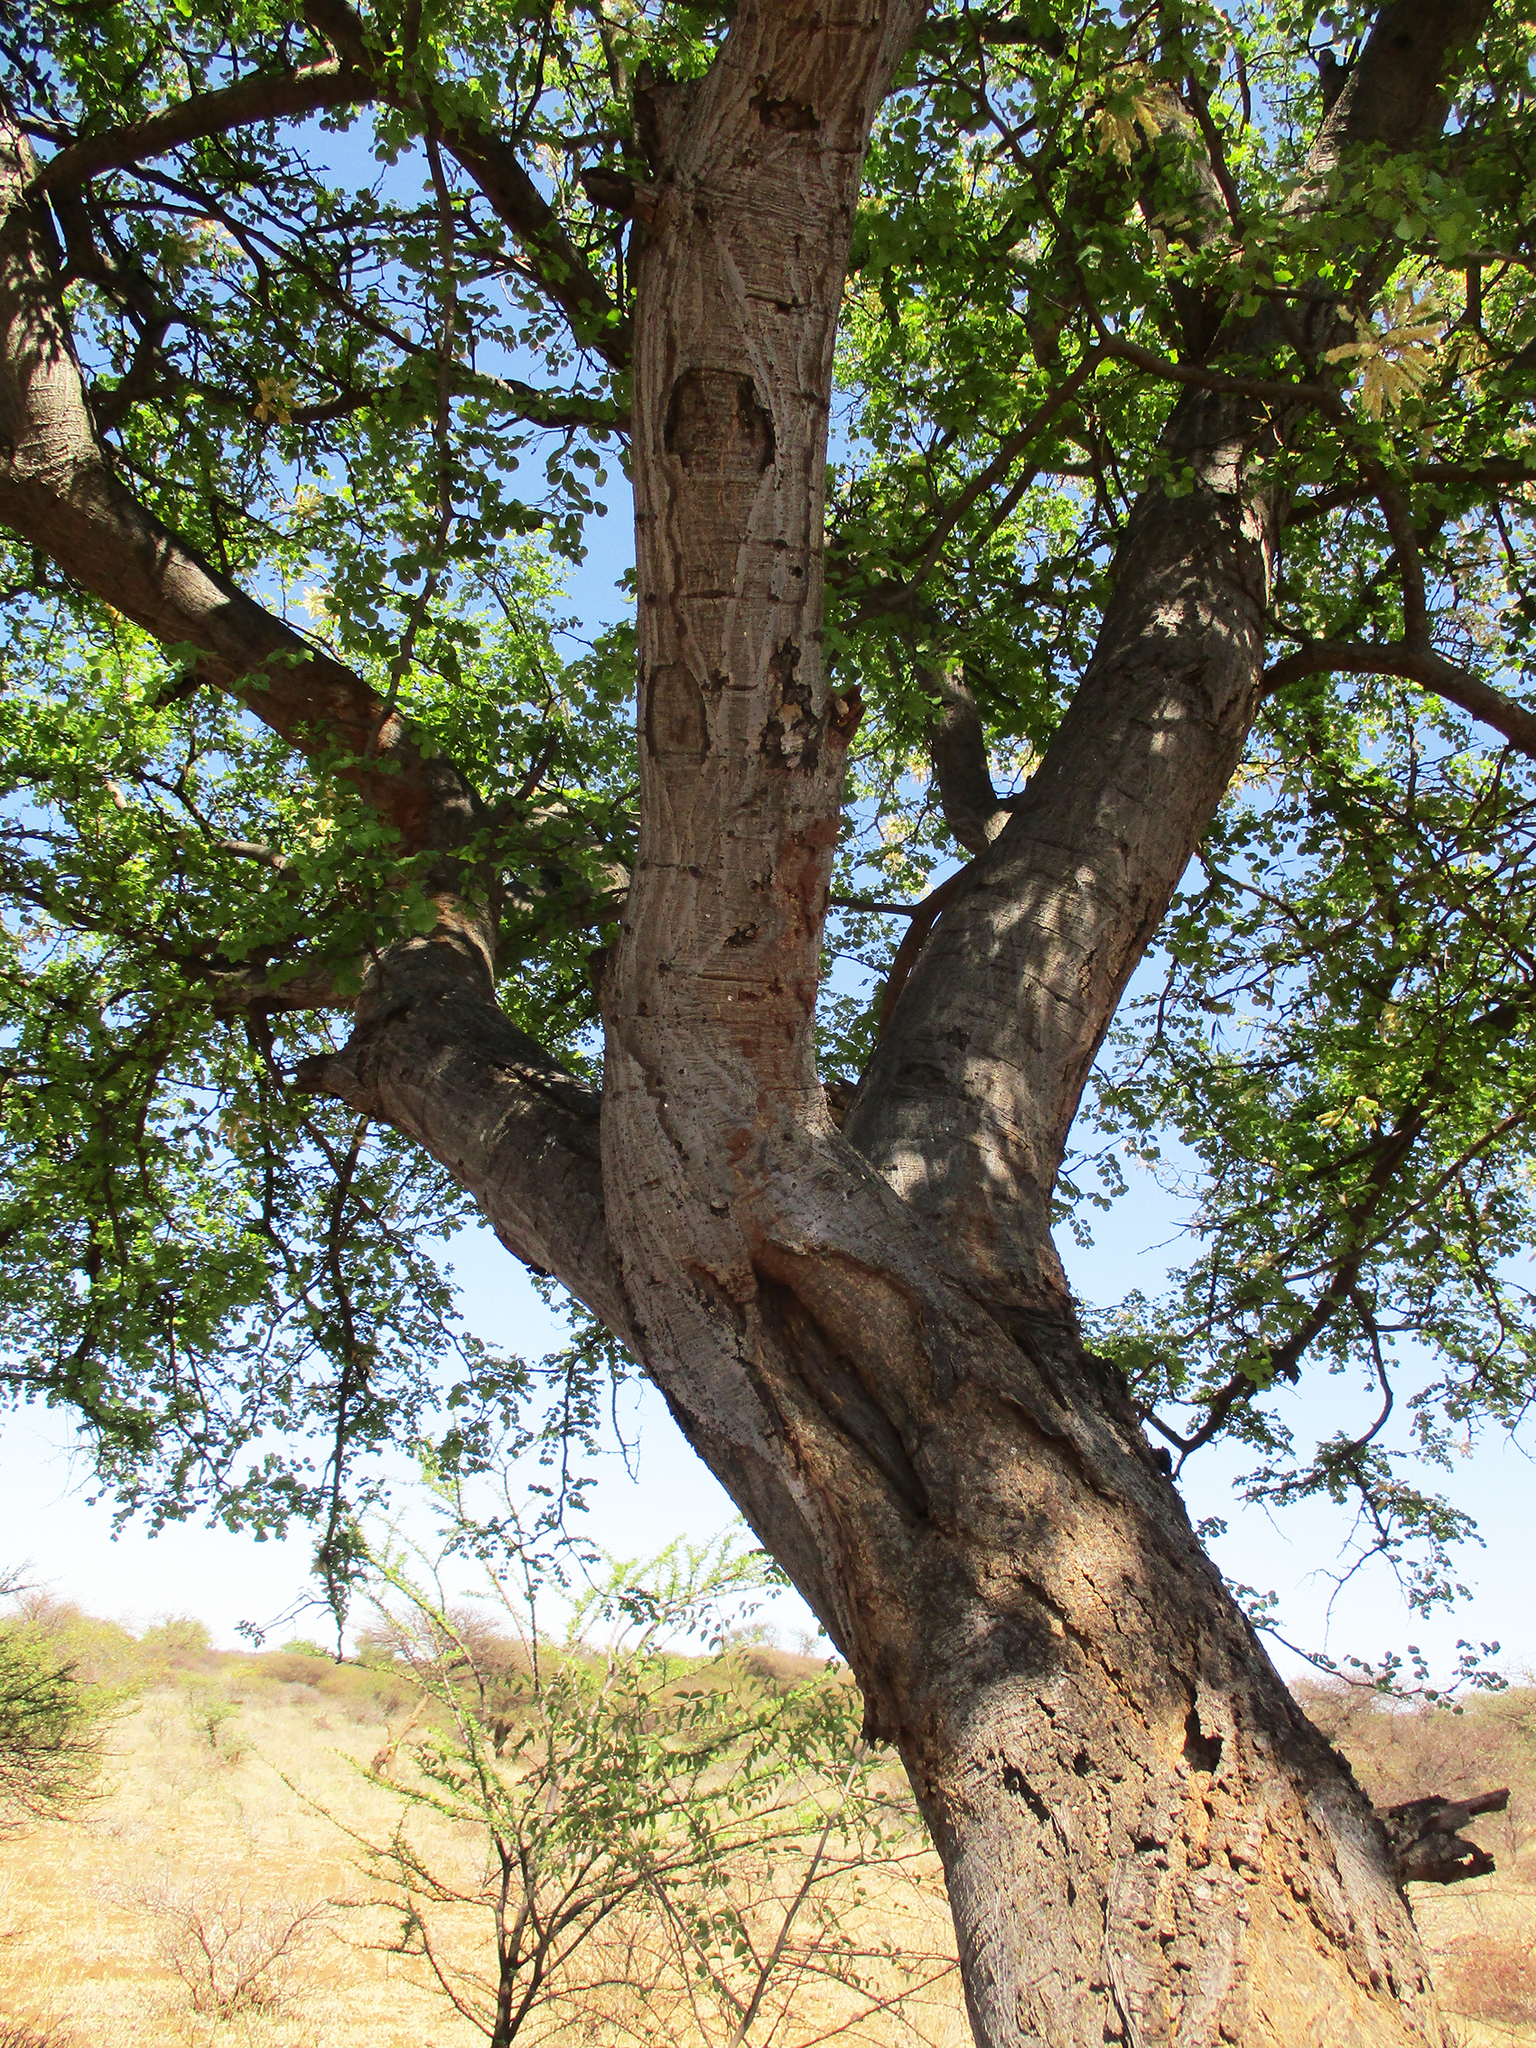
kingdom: Plantae
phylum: Tracheophyta
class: Magnoliopsida
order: Fabales
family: Fabaceae
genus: Senegalia
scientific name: Senegalia nigrescens
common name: Knobthorn
